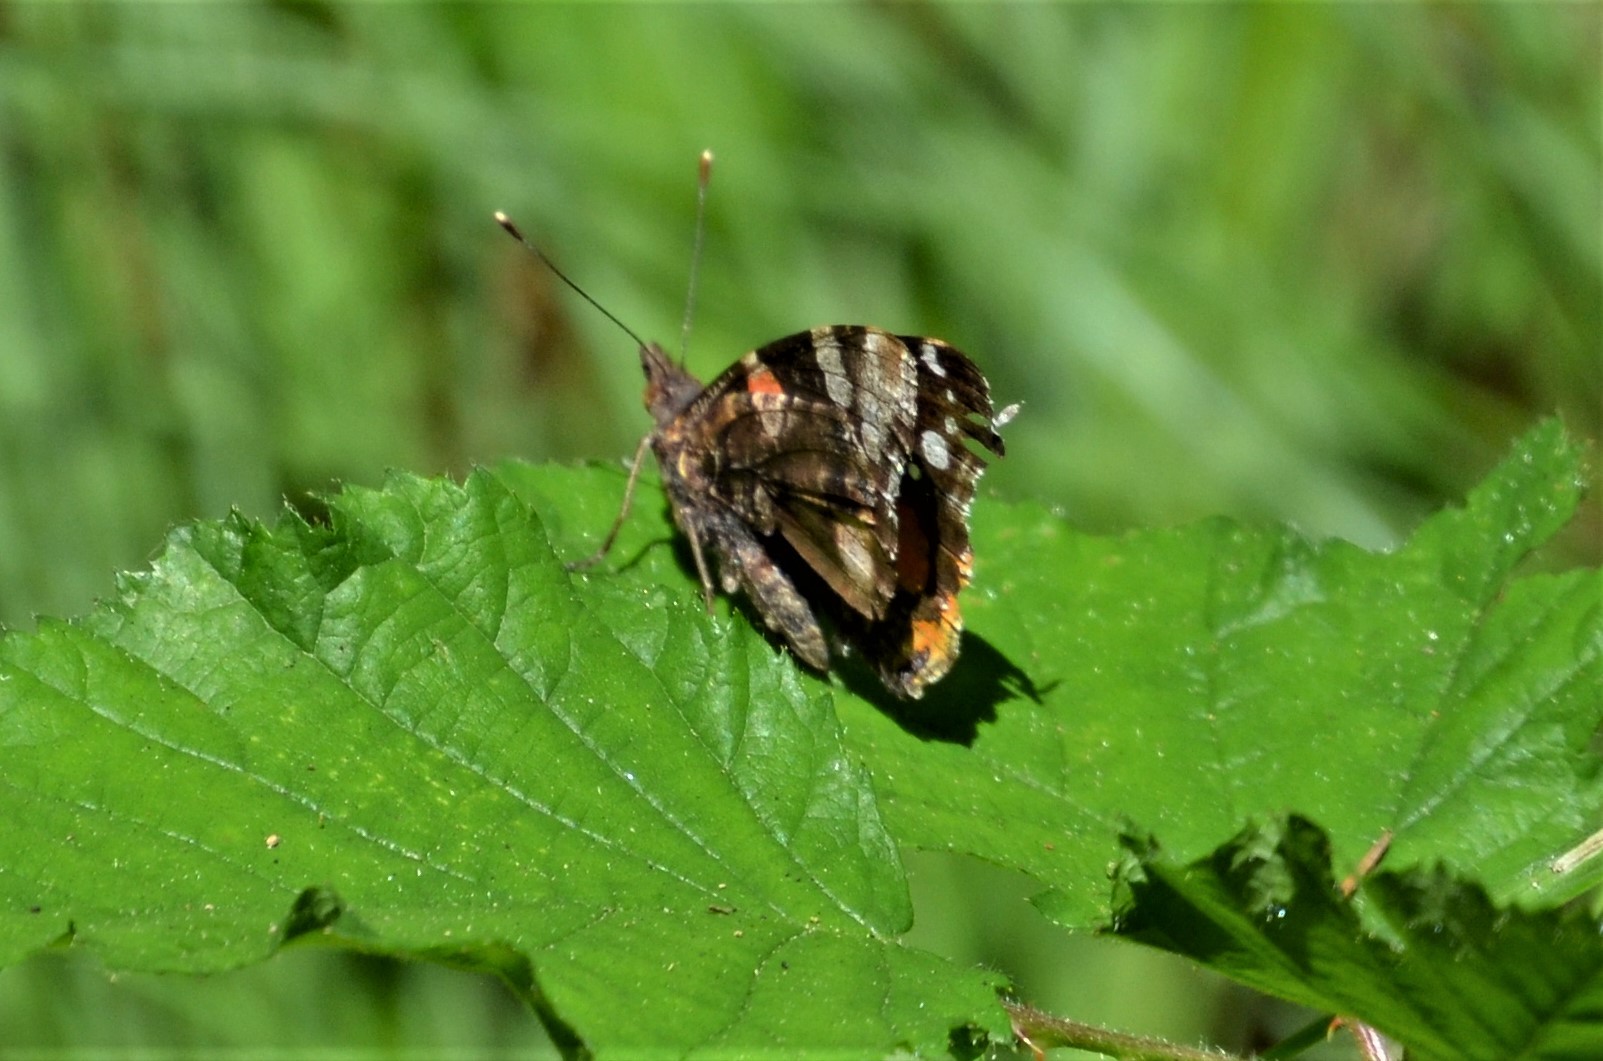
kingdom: Animalia
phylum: Arthropoda
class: Insecta
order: Lepidoptera
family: Nymphalidae
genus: Vanessa
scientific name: Vanessa atalanta
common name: Red admiral
